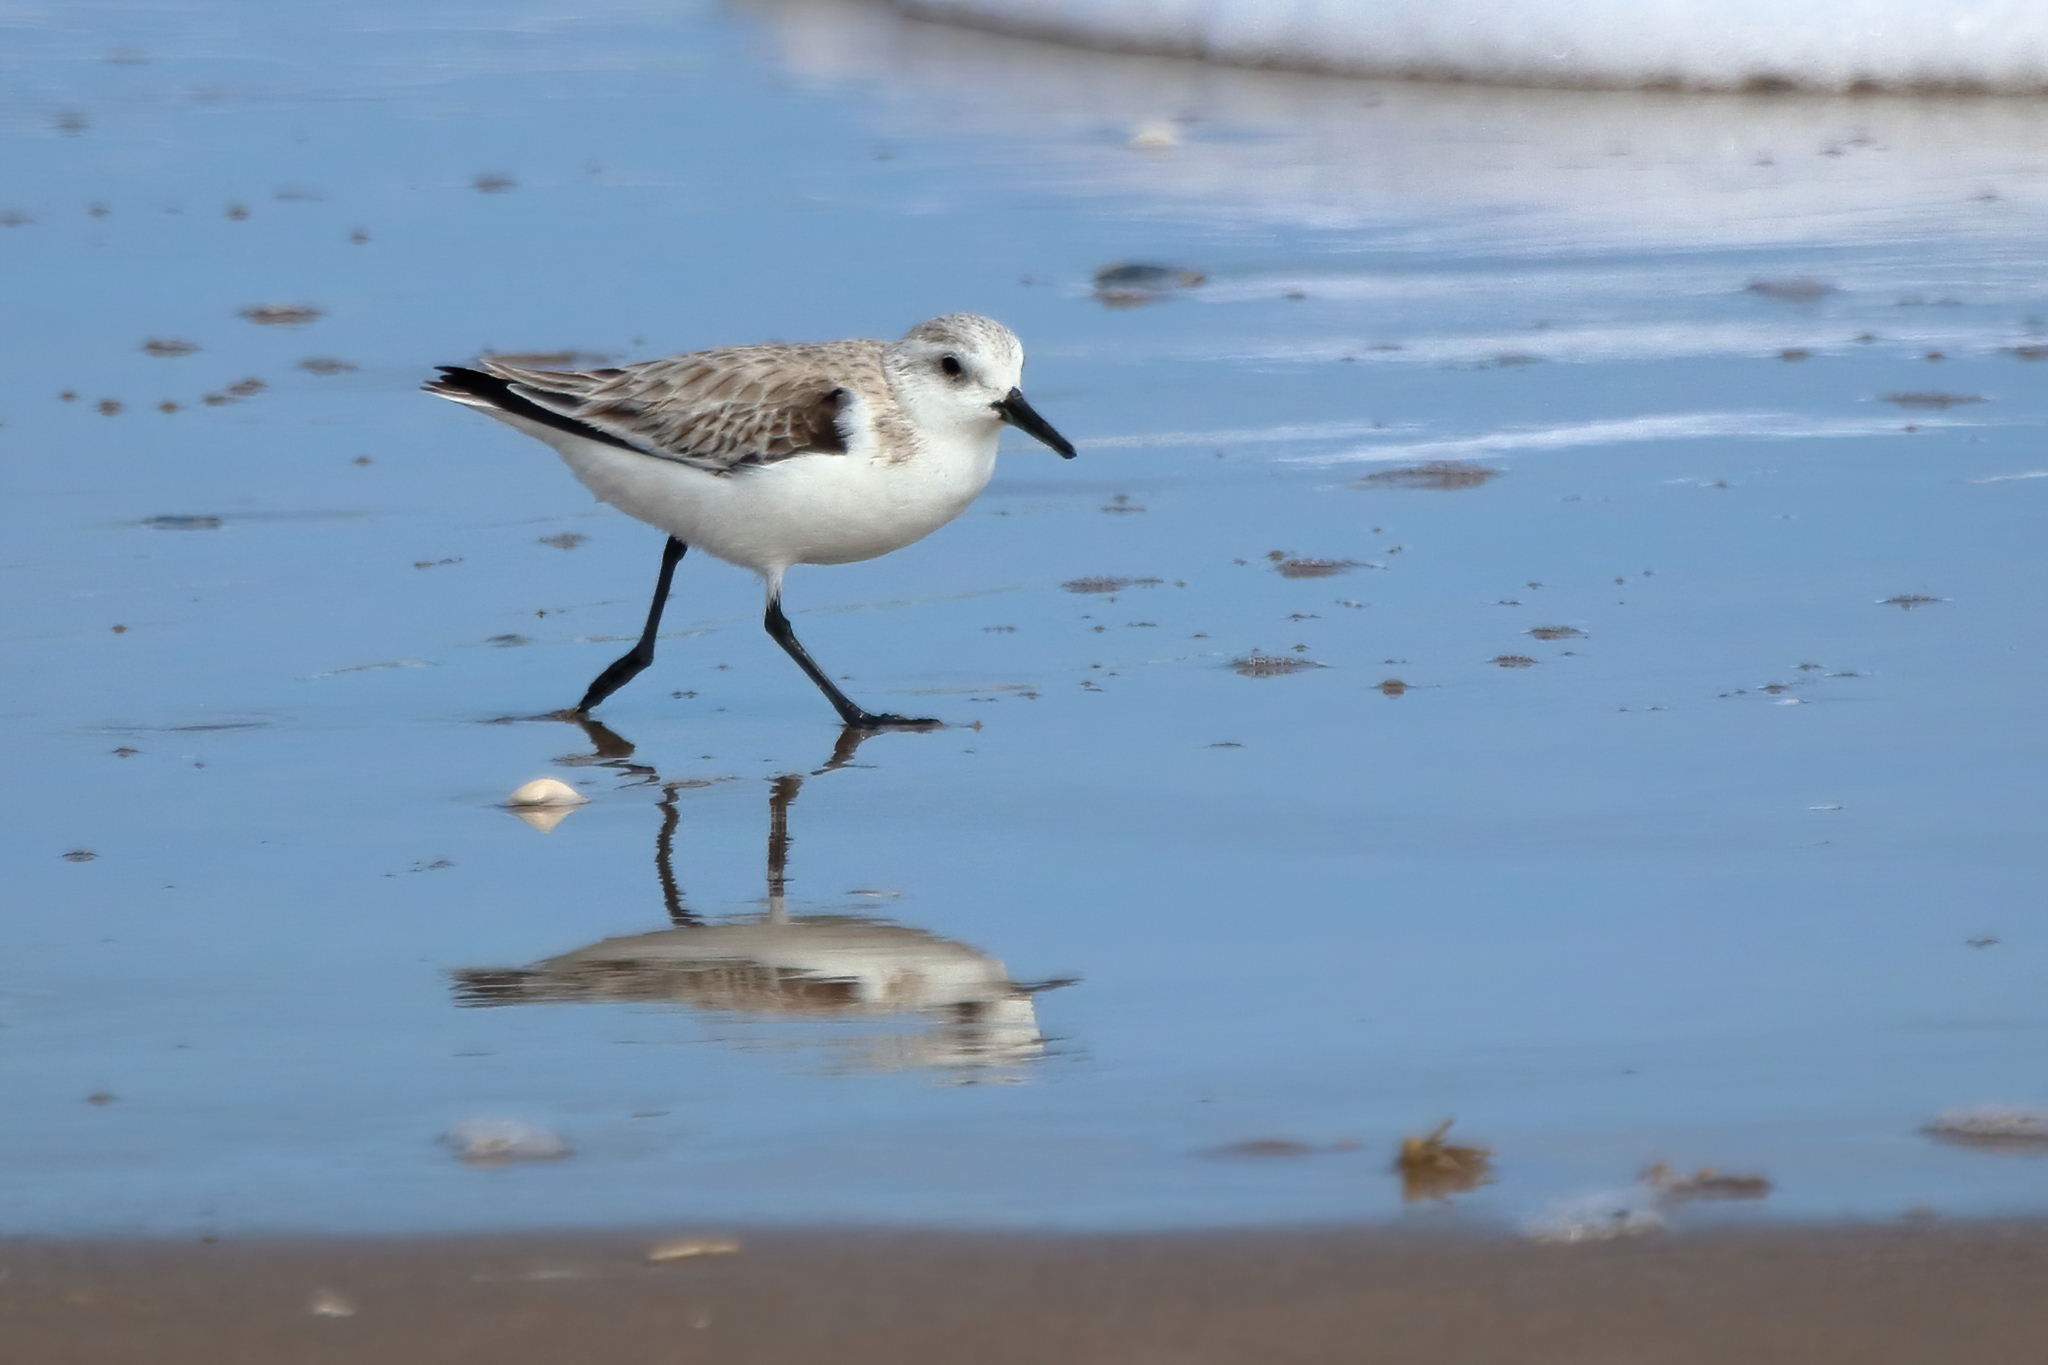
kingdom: Animalia
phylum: Chordata
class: Aves
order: Charadriiformes
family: Scolopacidae
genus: Calidris
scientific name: Calidris alba
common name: Sanderling
